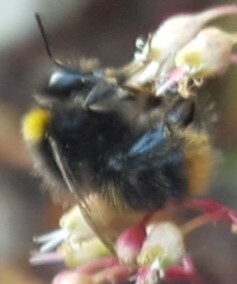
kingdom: Animalia
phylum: Arthropoda
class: Insecta
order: Hymenoptera
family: Apidae
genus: Bombus
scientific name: Bombus pratorum
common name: Early humble-bee
